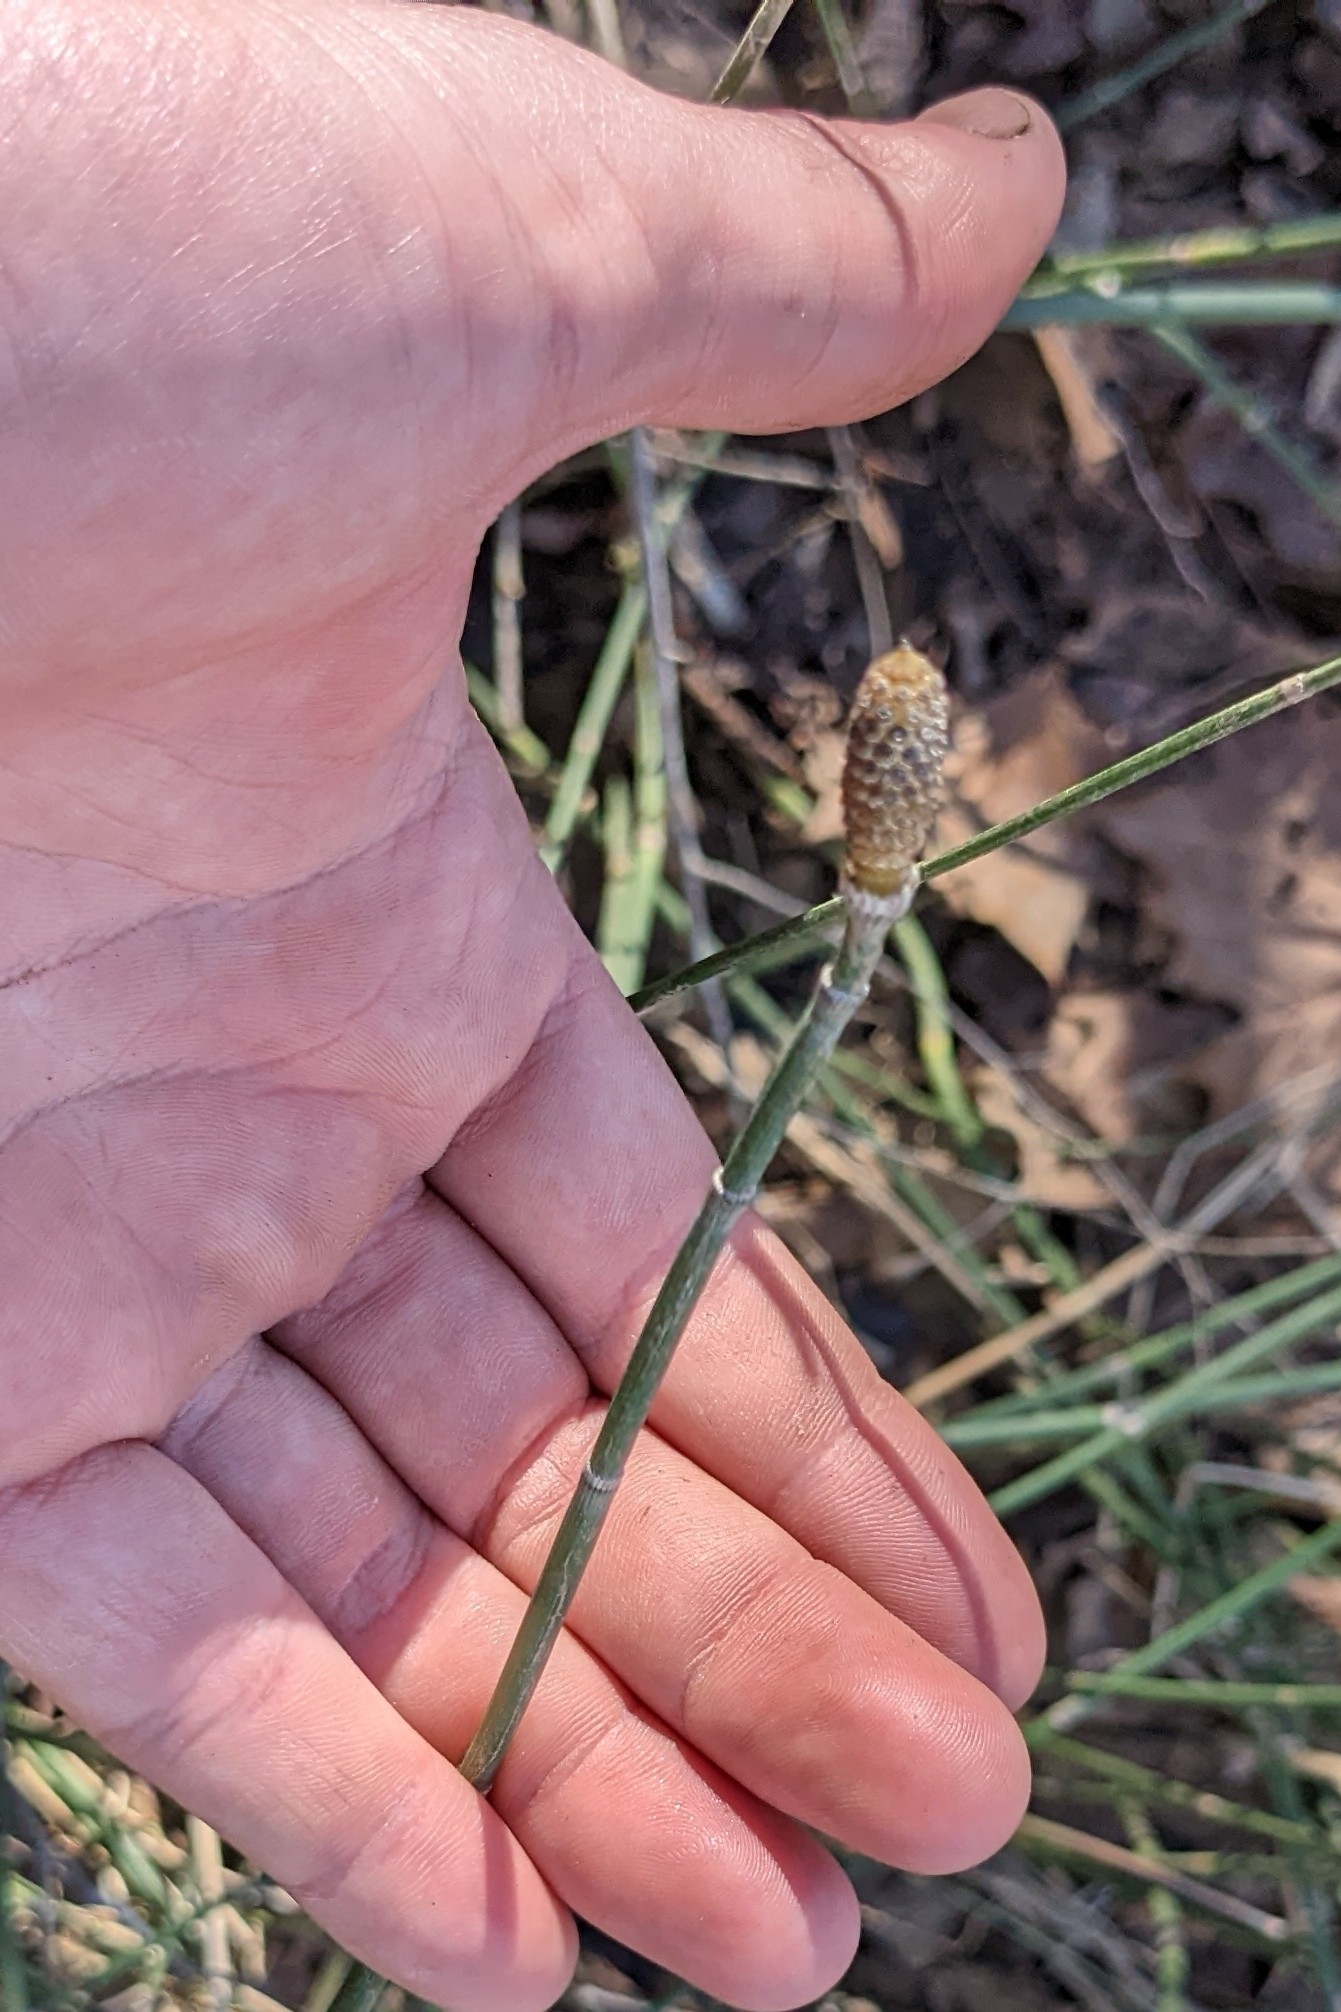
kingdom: Plantae
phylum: Tracheophyta
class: Polypodiopsida
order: Equisetales
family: Equisetaceae
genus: Equisetum
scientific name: Equisetum hyemale
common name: Rough horsetail
